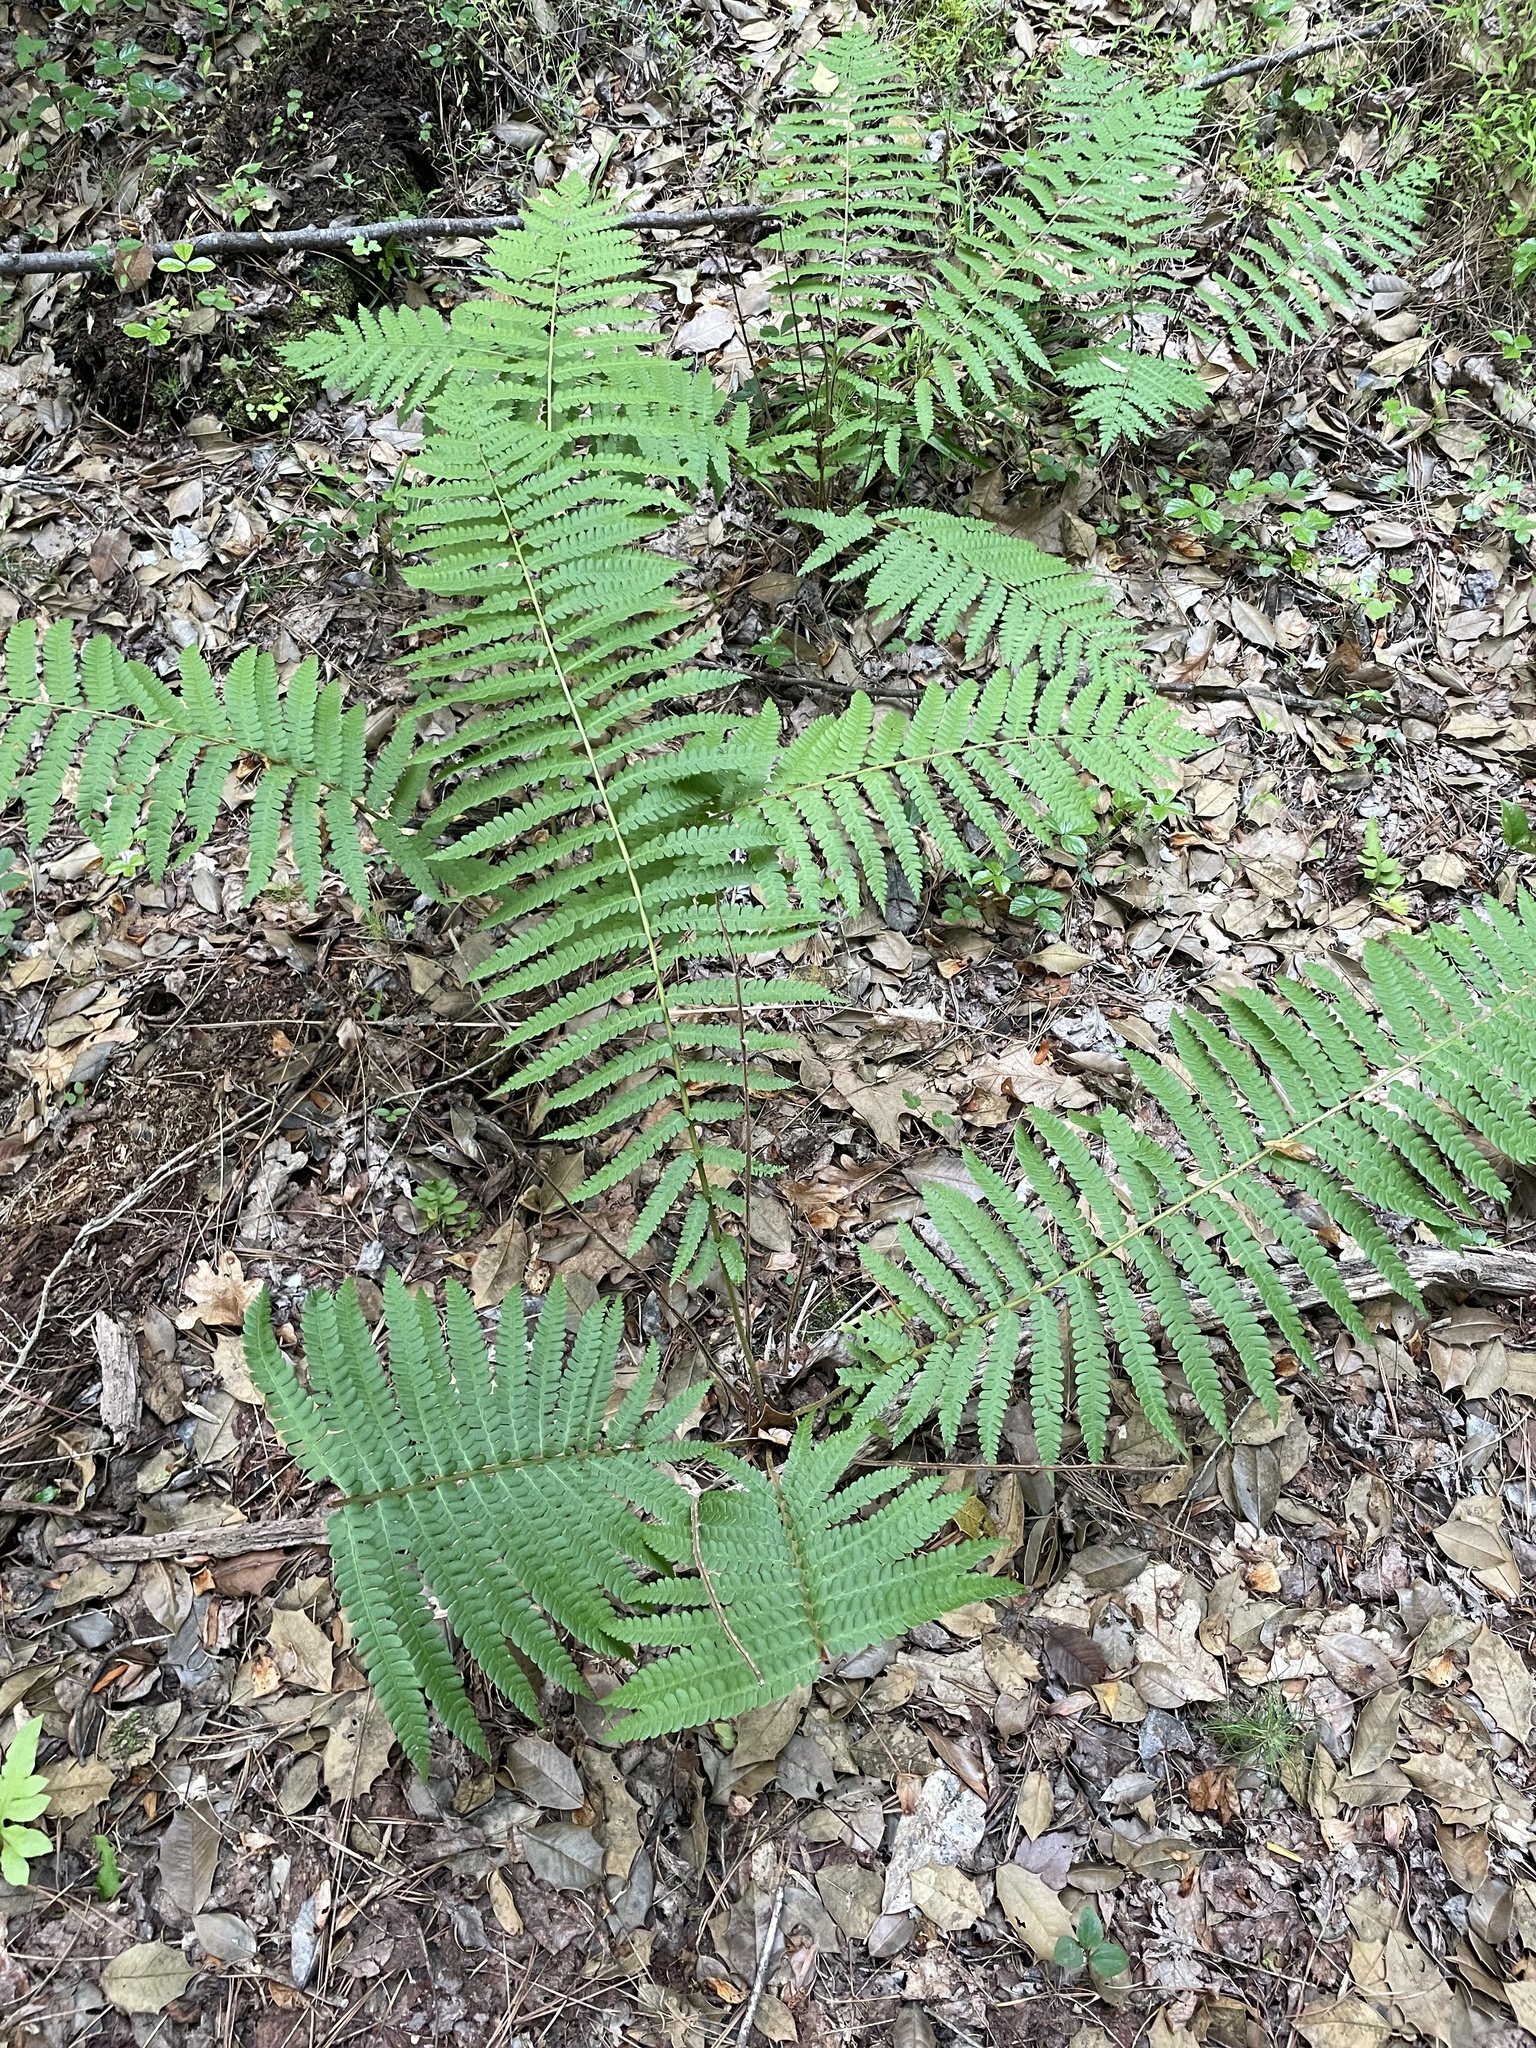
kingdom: Plantae
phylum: Tracheophyta
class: Polypodiopsida
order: Osmundales
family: Osmundaceae
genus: Osmundastrum
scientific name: Osmundastrum cinnamomeum
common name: Cinnamon fern
